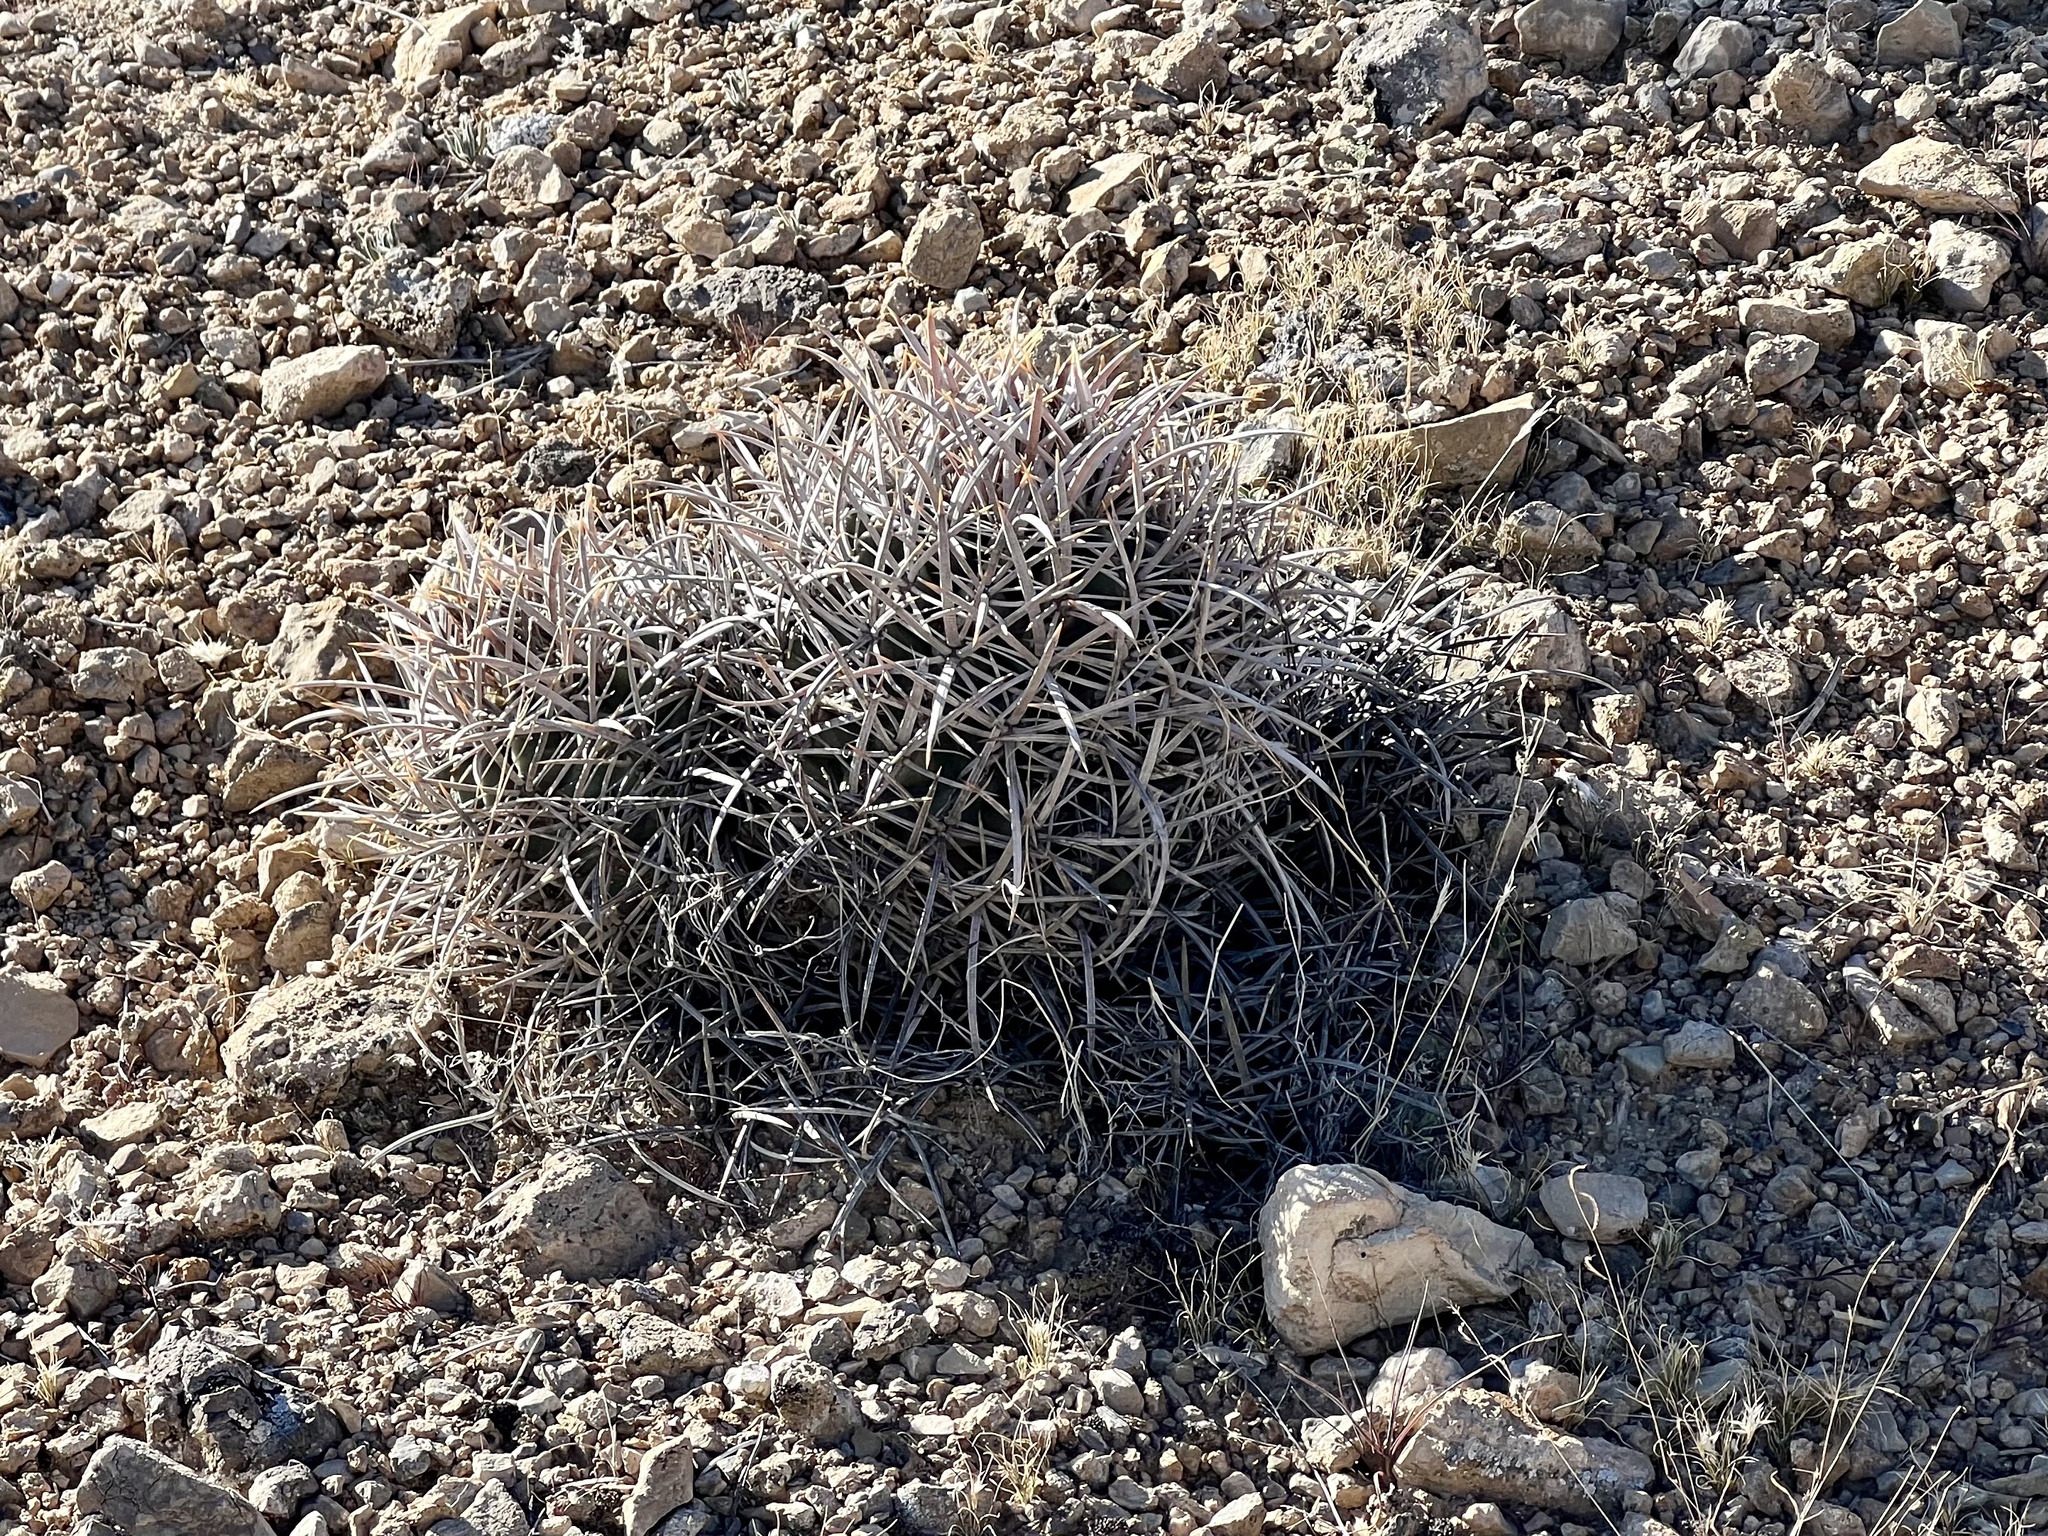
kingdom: Plantae
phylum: Tracheophyta
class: Magnoliopsida
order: Caryophyllales
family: Cactaceae
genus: Echinocactus
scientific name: Echinocactus polycephalus
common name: Cottontop cactus
